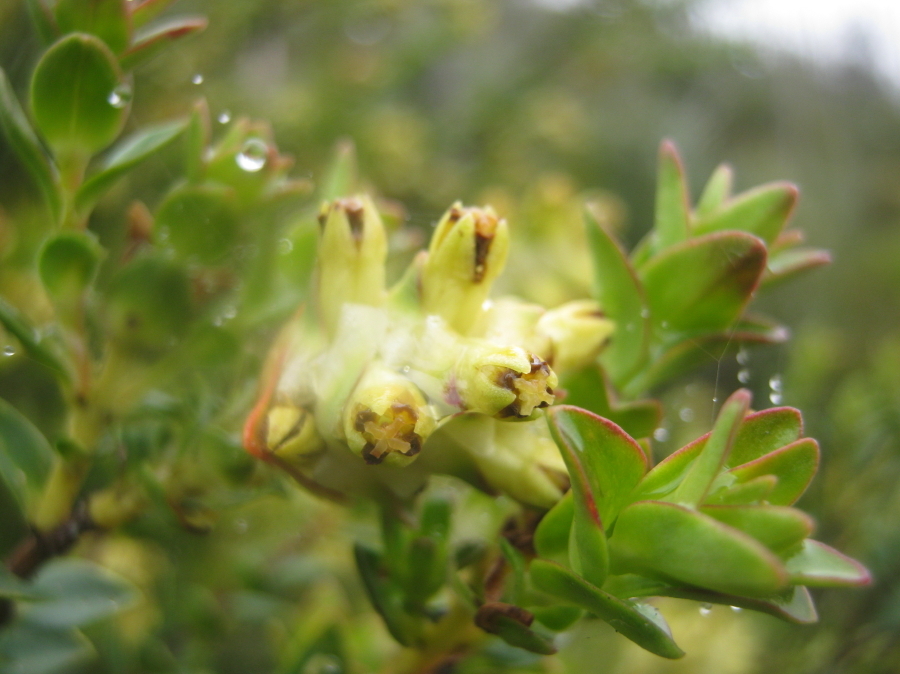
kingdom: Plantae
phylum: Tracheophyta
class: Magnoliopsida
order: Myrtales
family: Penaeaceae
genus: Penaea
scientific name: Penaea cneorum
